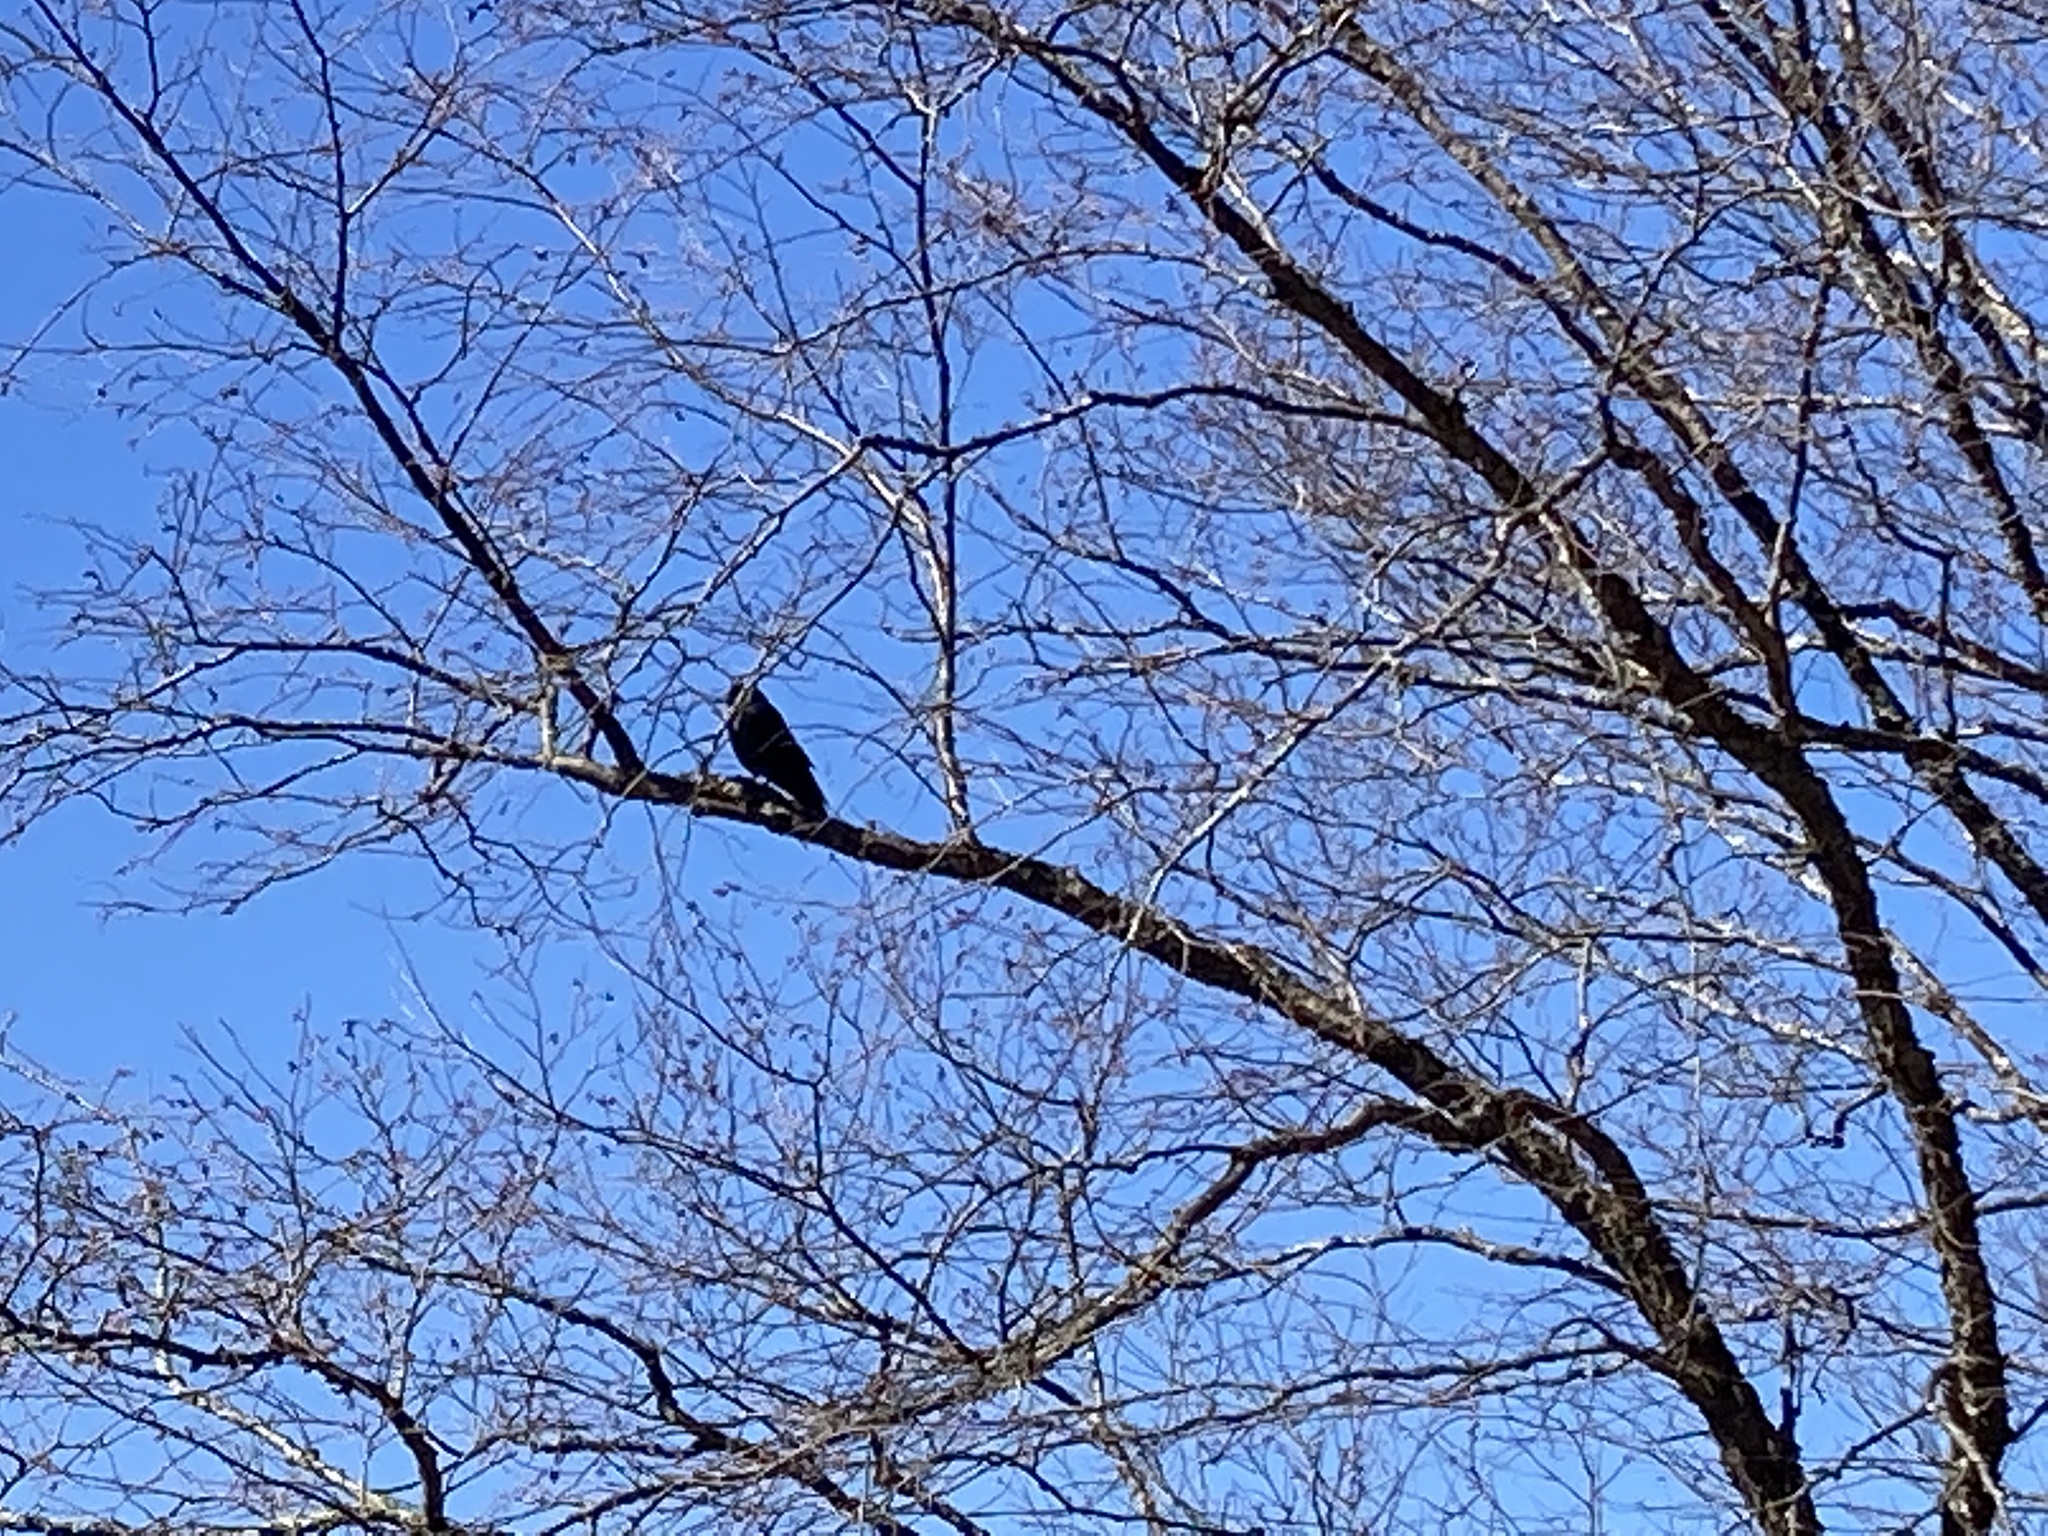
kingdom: Animalia
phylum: Chordata
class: Aves
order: Passeriformes
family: Corvidae
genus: Corvus
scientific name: Corvus brachyrhynchos
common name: American crow
